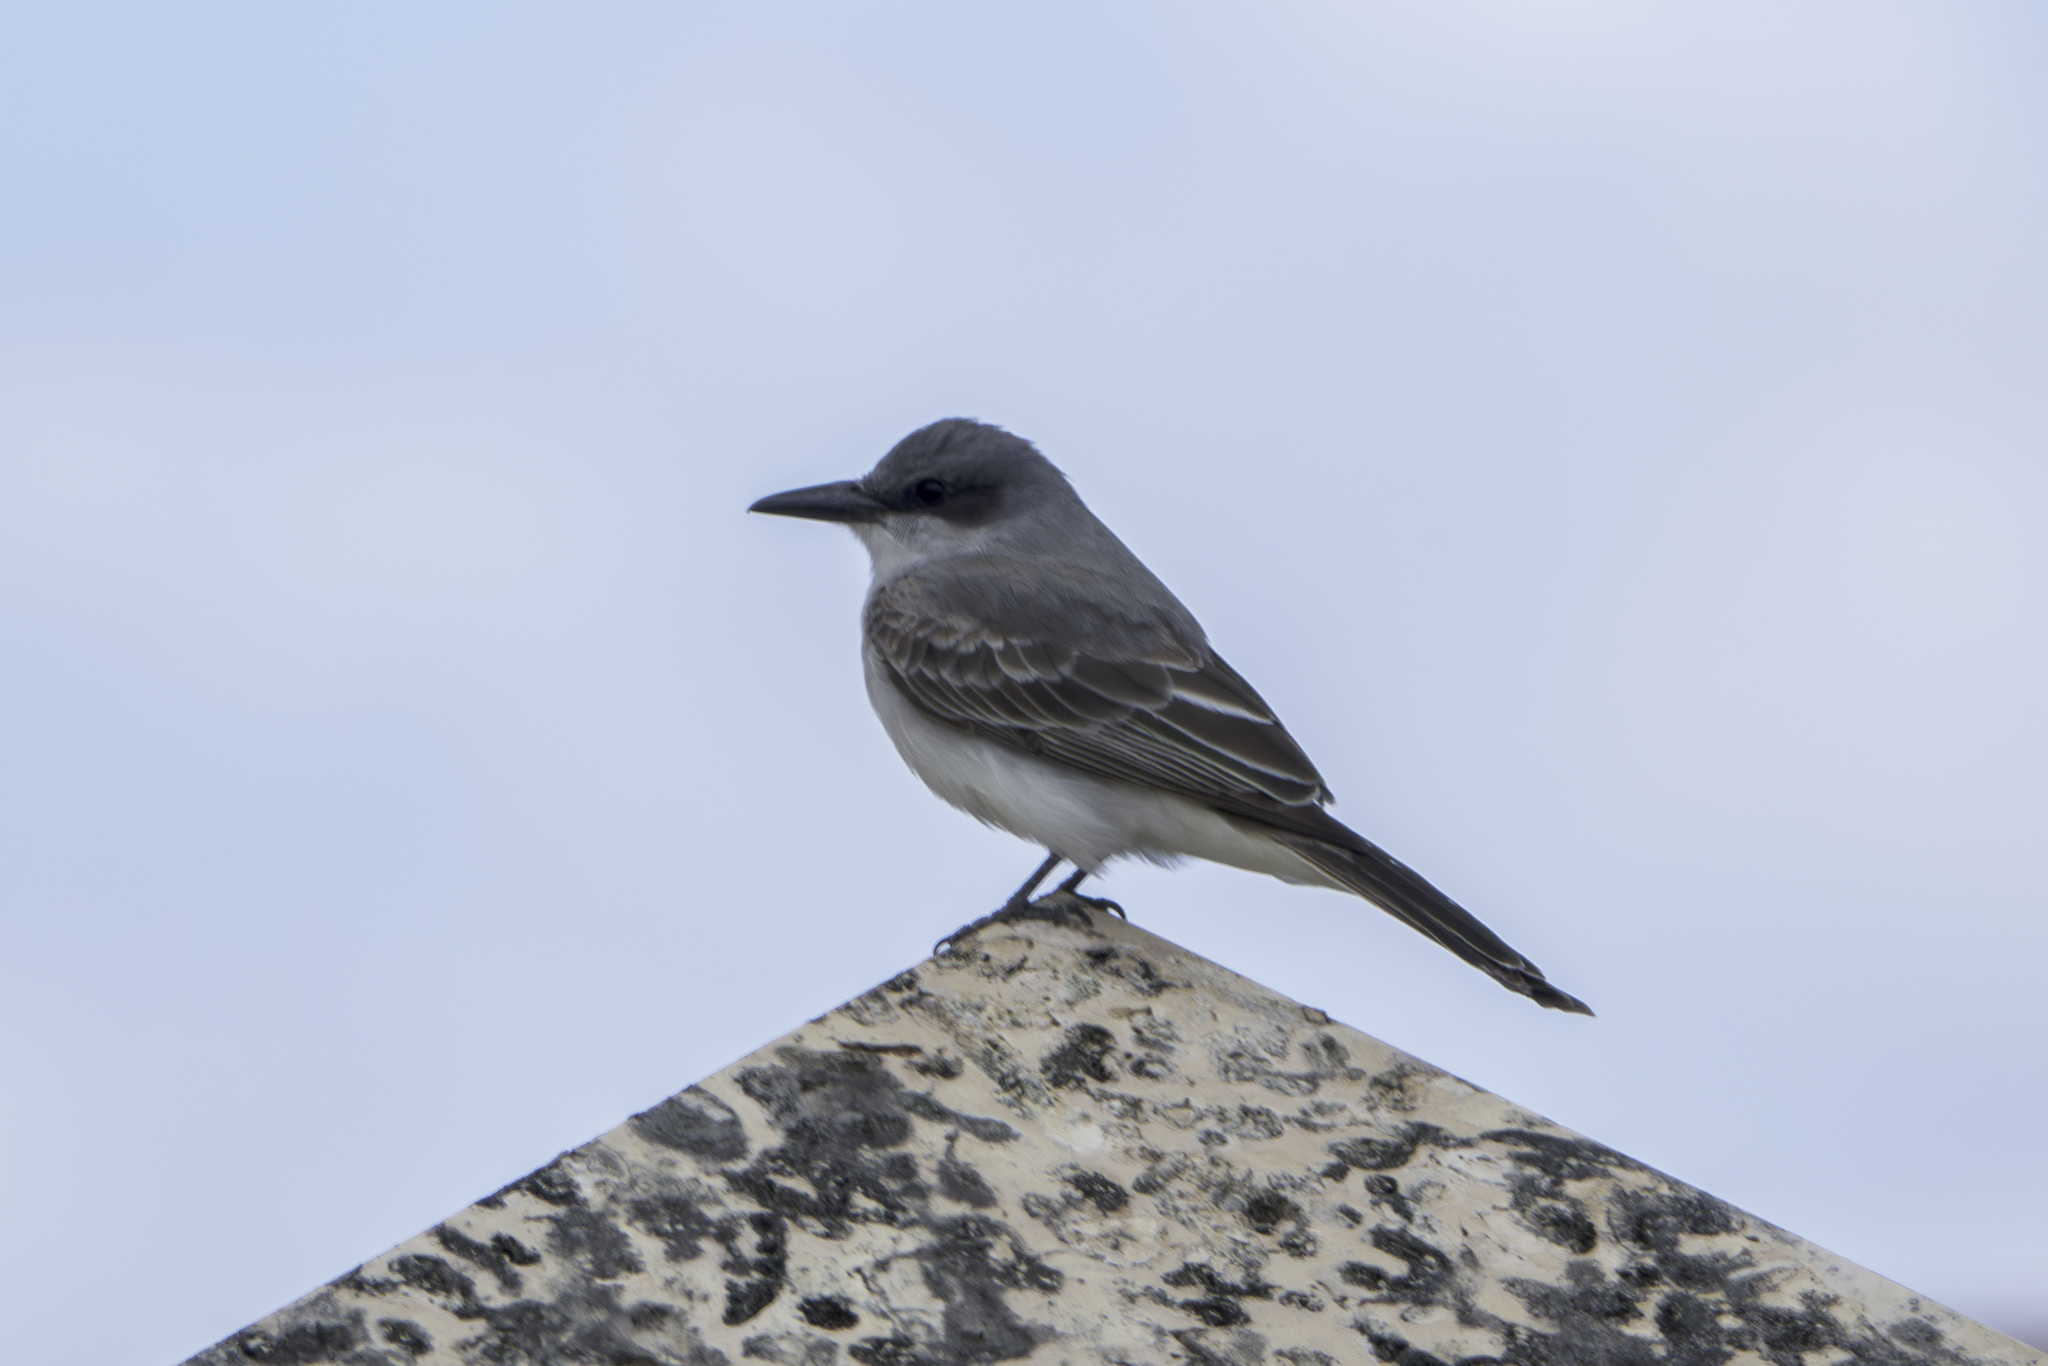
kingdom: Animalia
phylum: Chordata
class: Aves
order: Passeriformes
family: Tyrannidae
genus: Tyrannus
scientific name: Tyrannus dominicensis
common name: Gray kingbird
